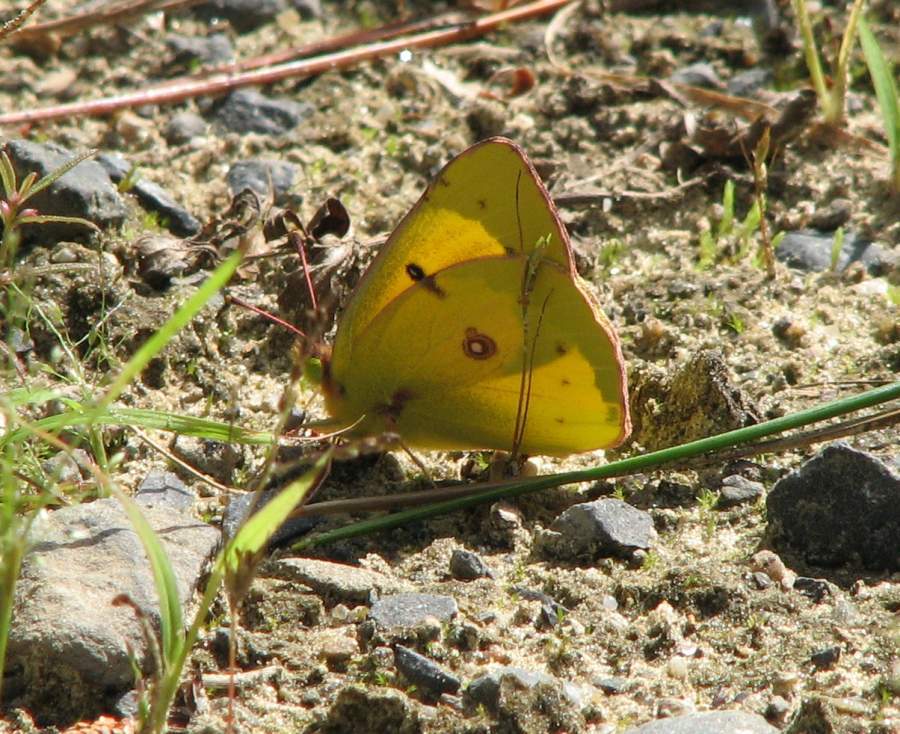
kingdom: Animalia
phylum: Arthropoda
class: Insecta
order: Lepidoptera
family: Pieridae
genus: Colias
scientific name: Colias philodice
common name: Clouded sulphur
